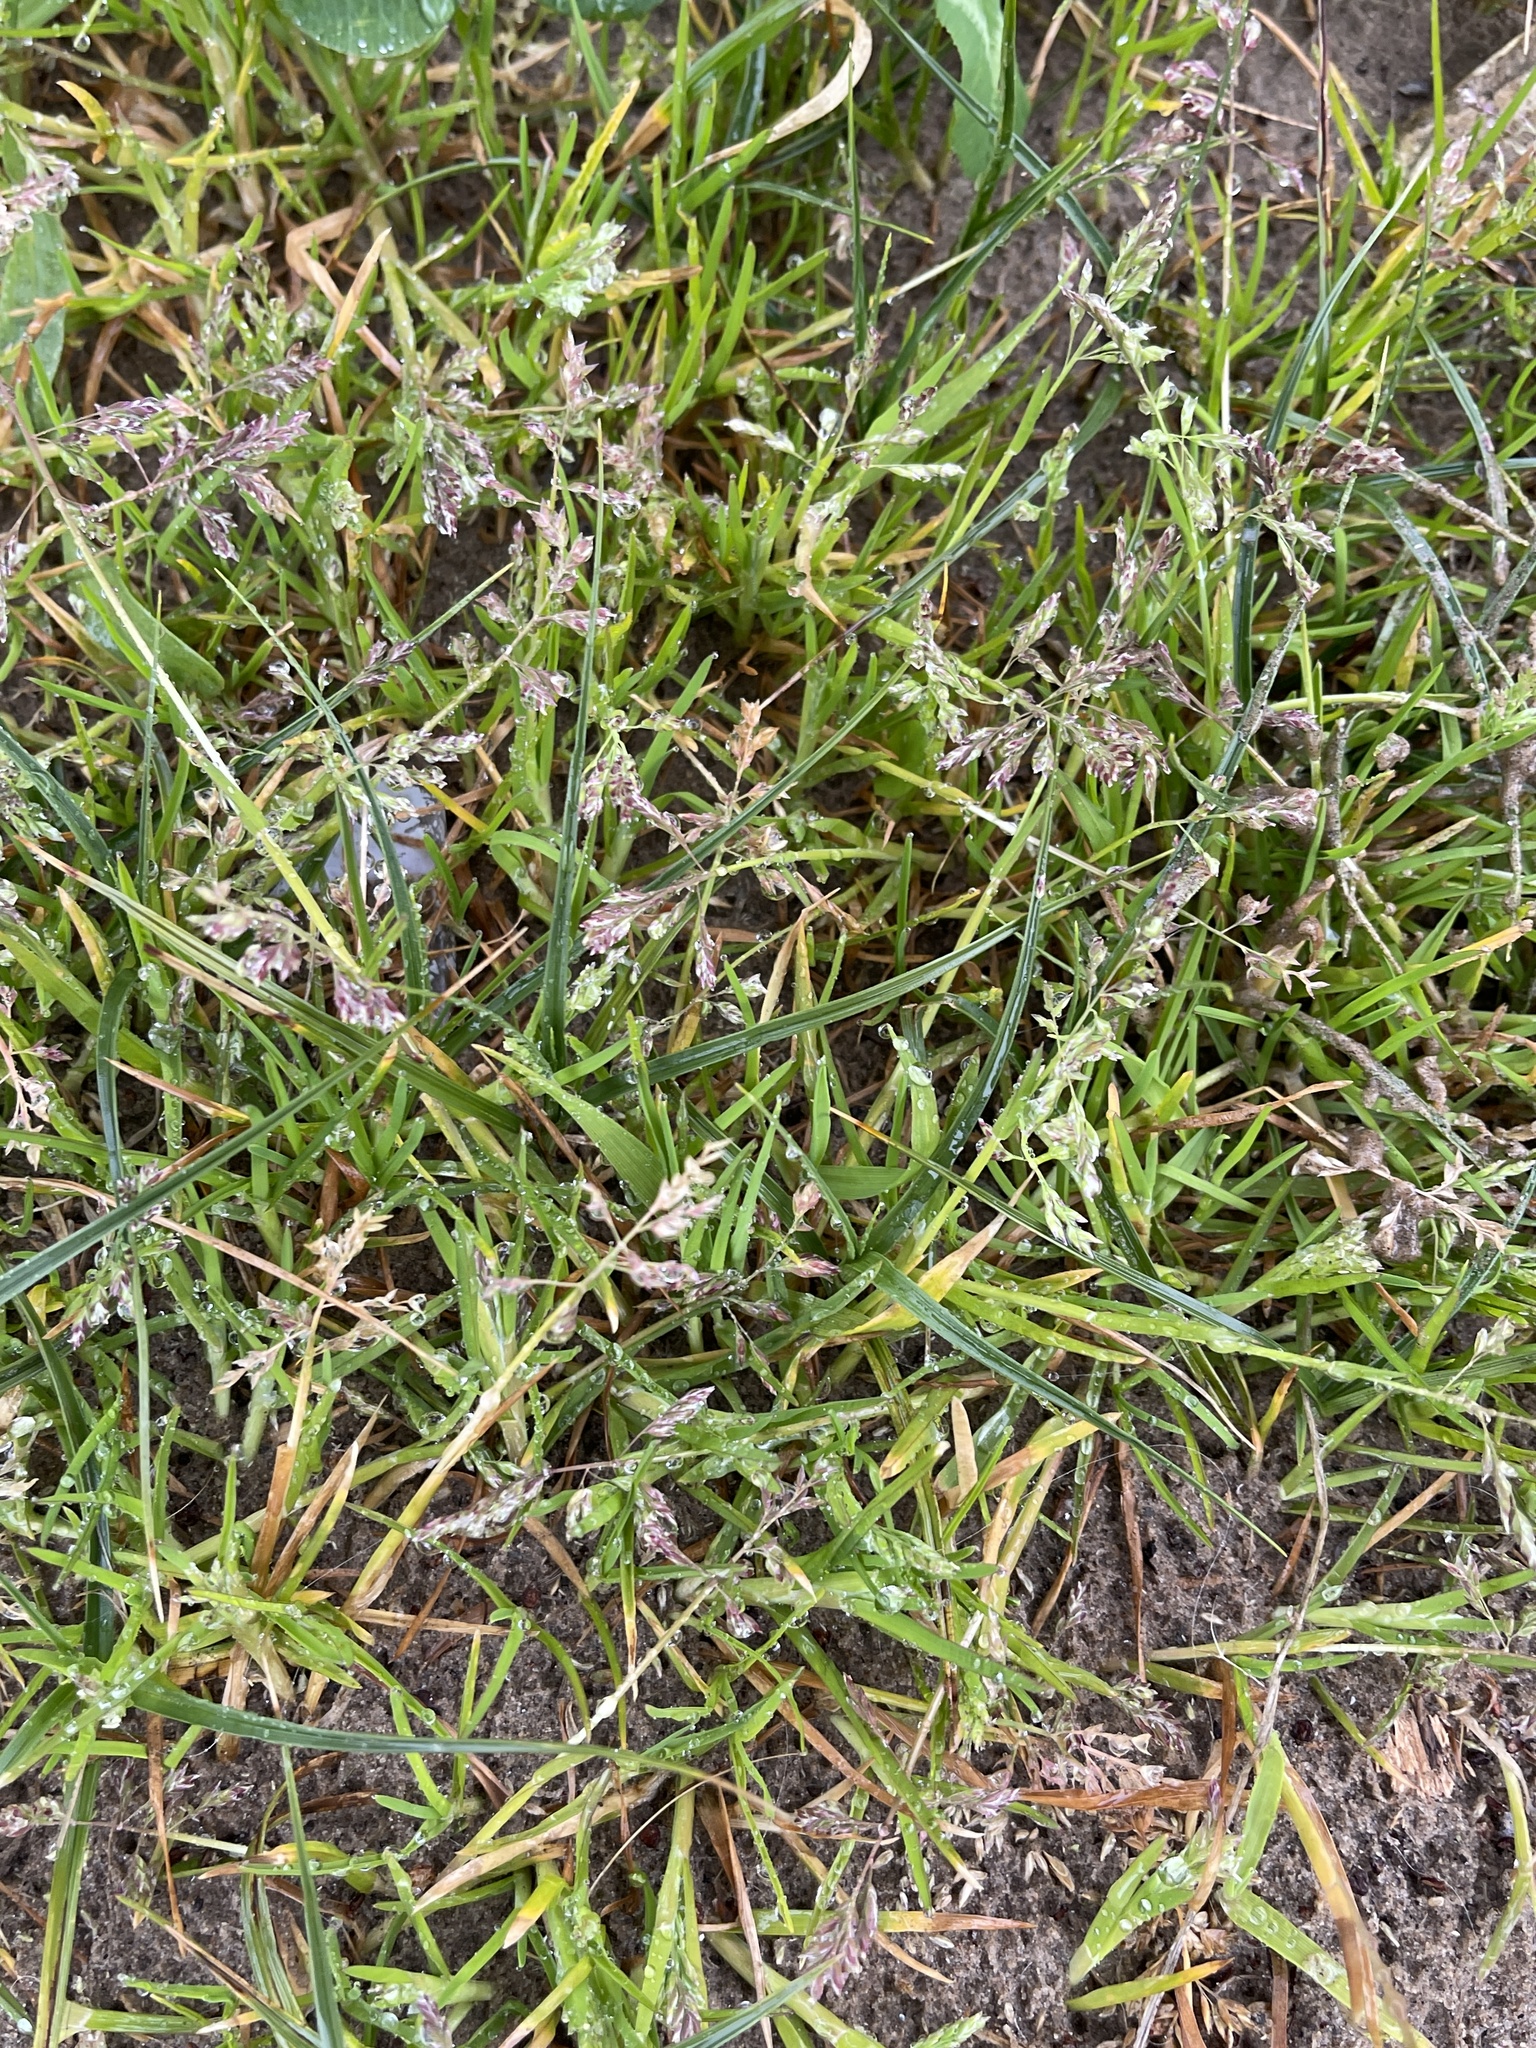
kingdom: Plantae
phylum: Tracheophyta
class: Liliopsida
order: Poales
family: Poaceae
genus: Poa
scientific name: Poa annua
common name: Annual bluegrass
